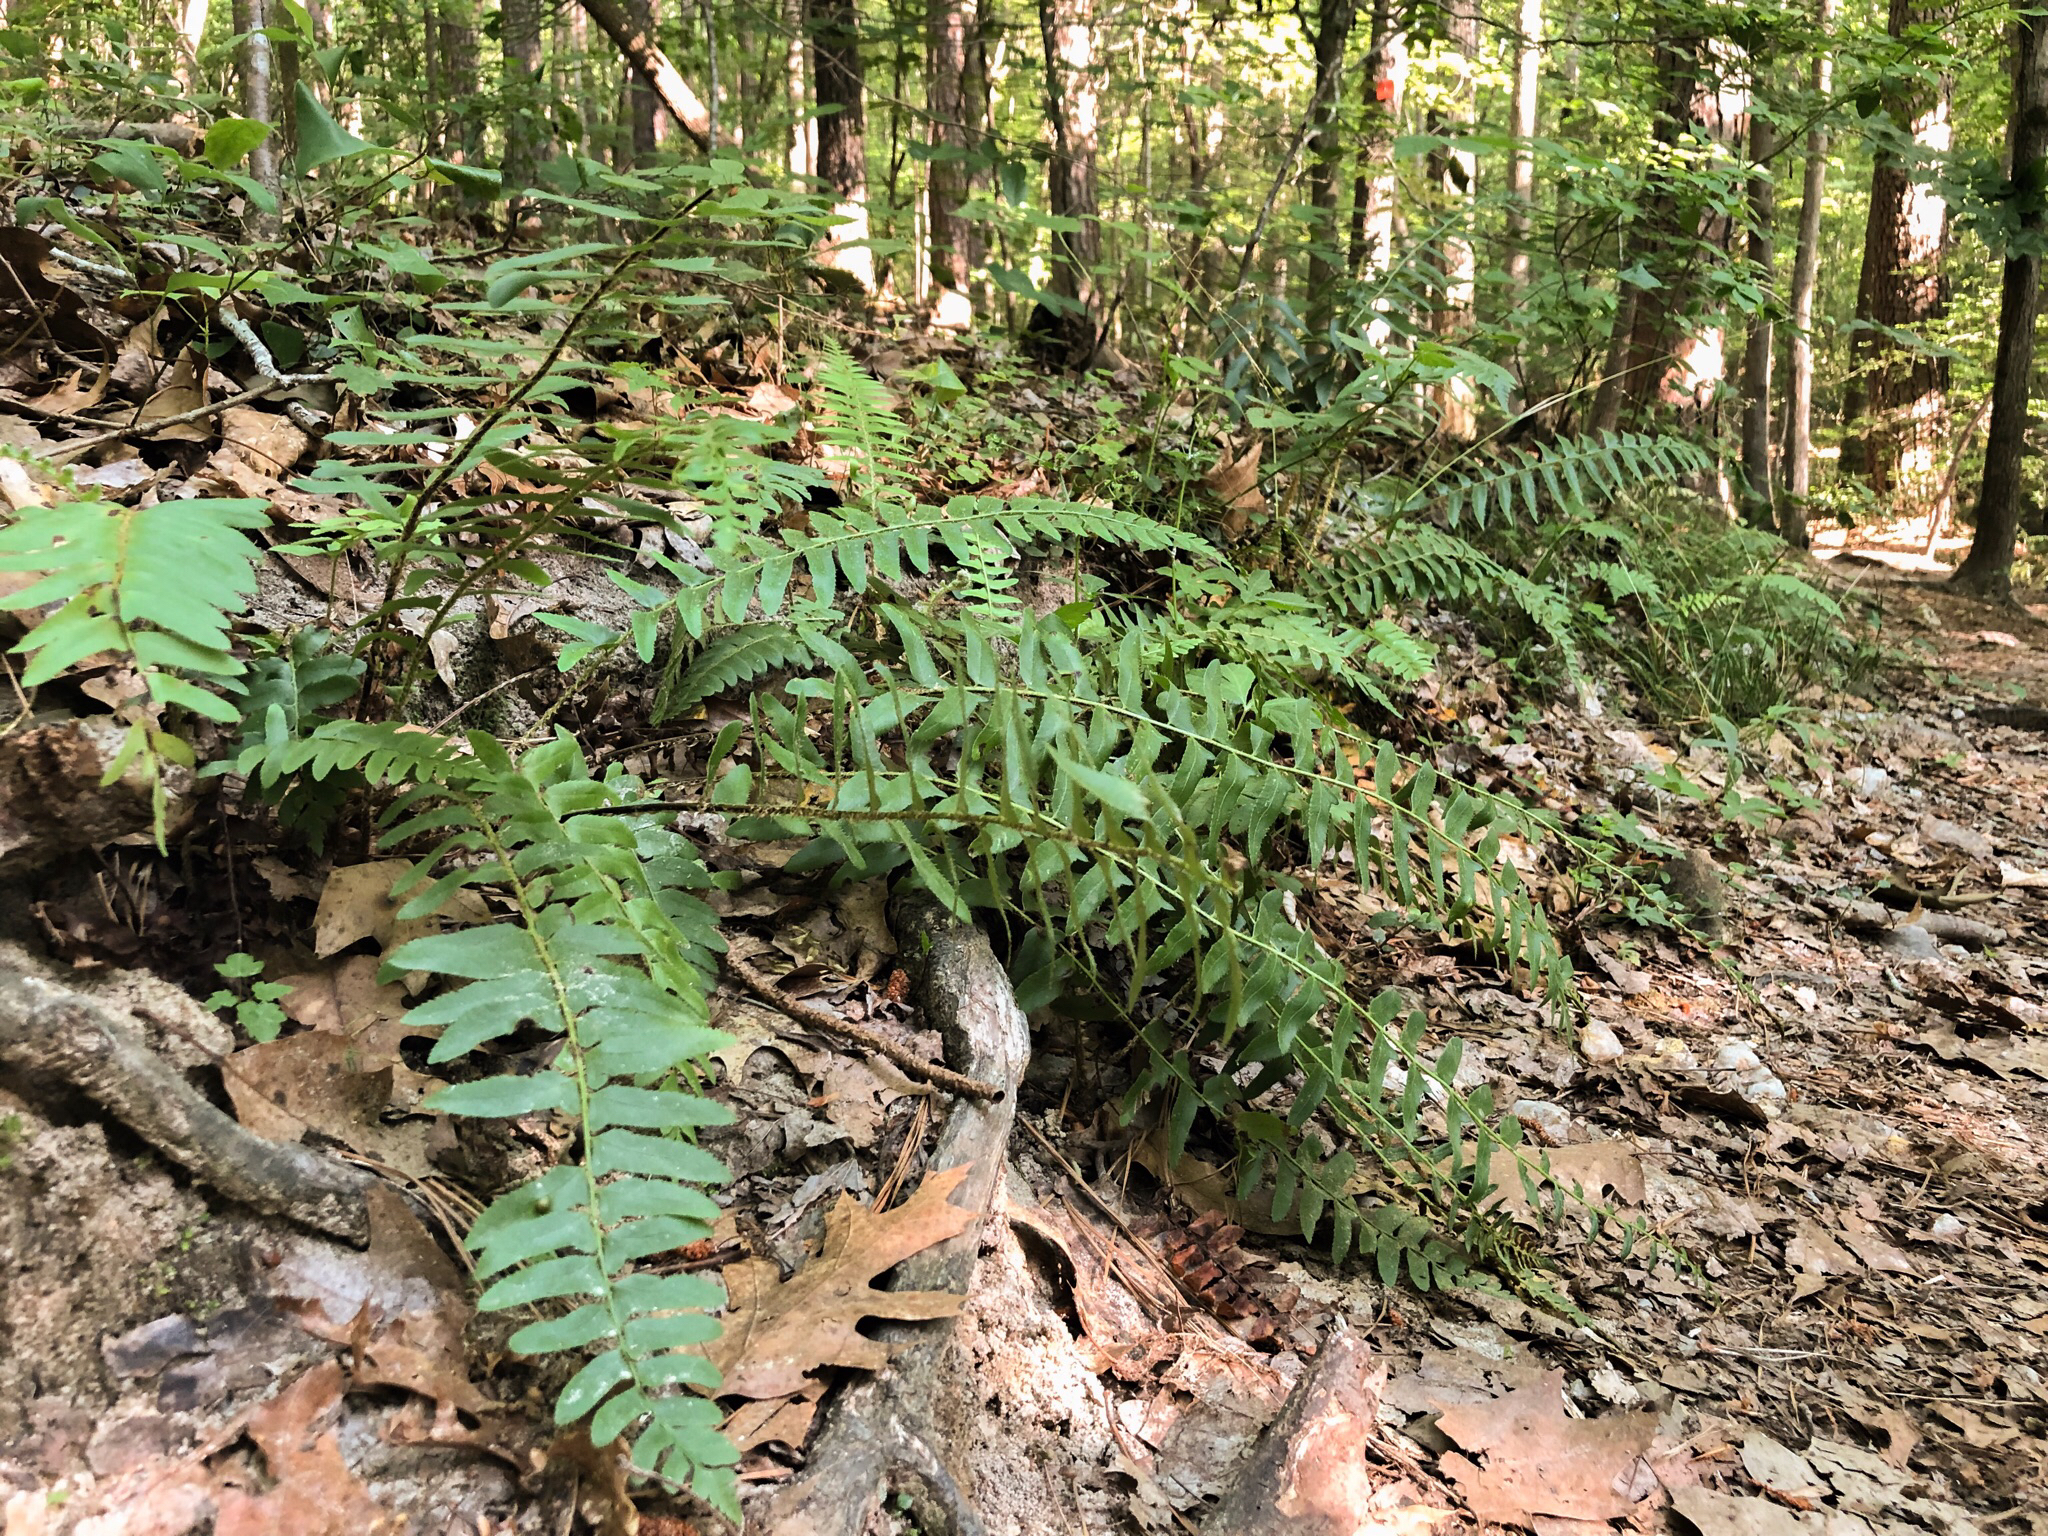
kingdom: Plantae
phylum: Tracheophyta
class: Polypodiopsida
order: Polypodiales
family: Dryopteridaceae
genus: Polystichum
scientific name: Polystichum acrostichoides
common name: Christmas fern
